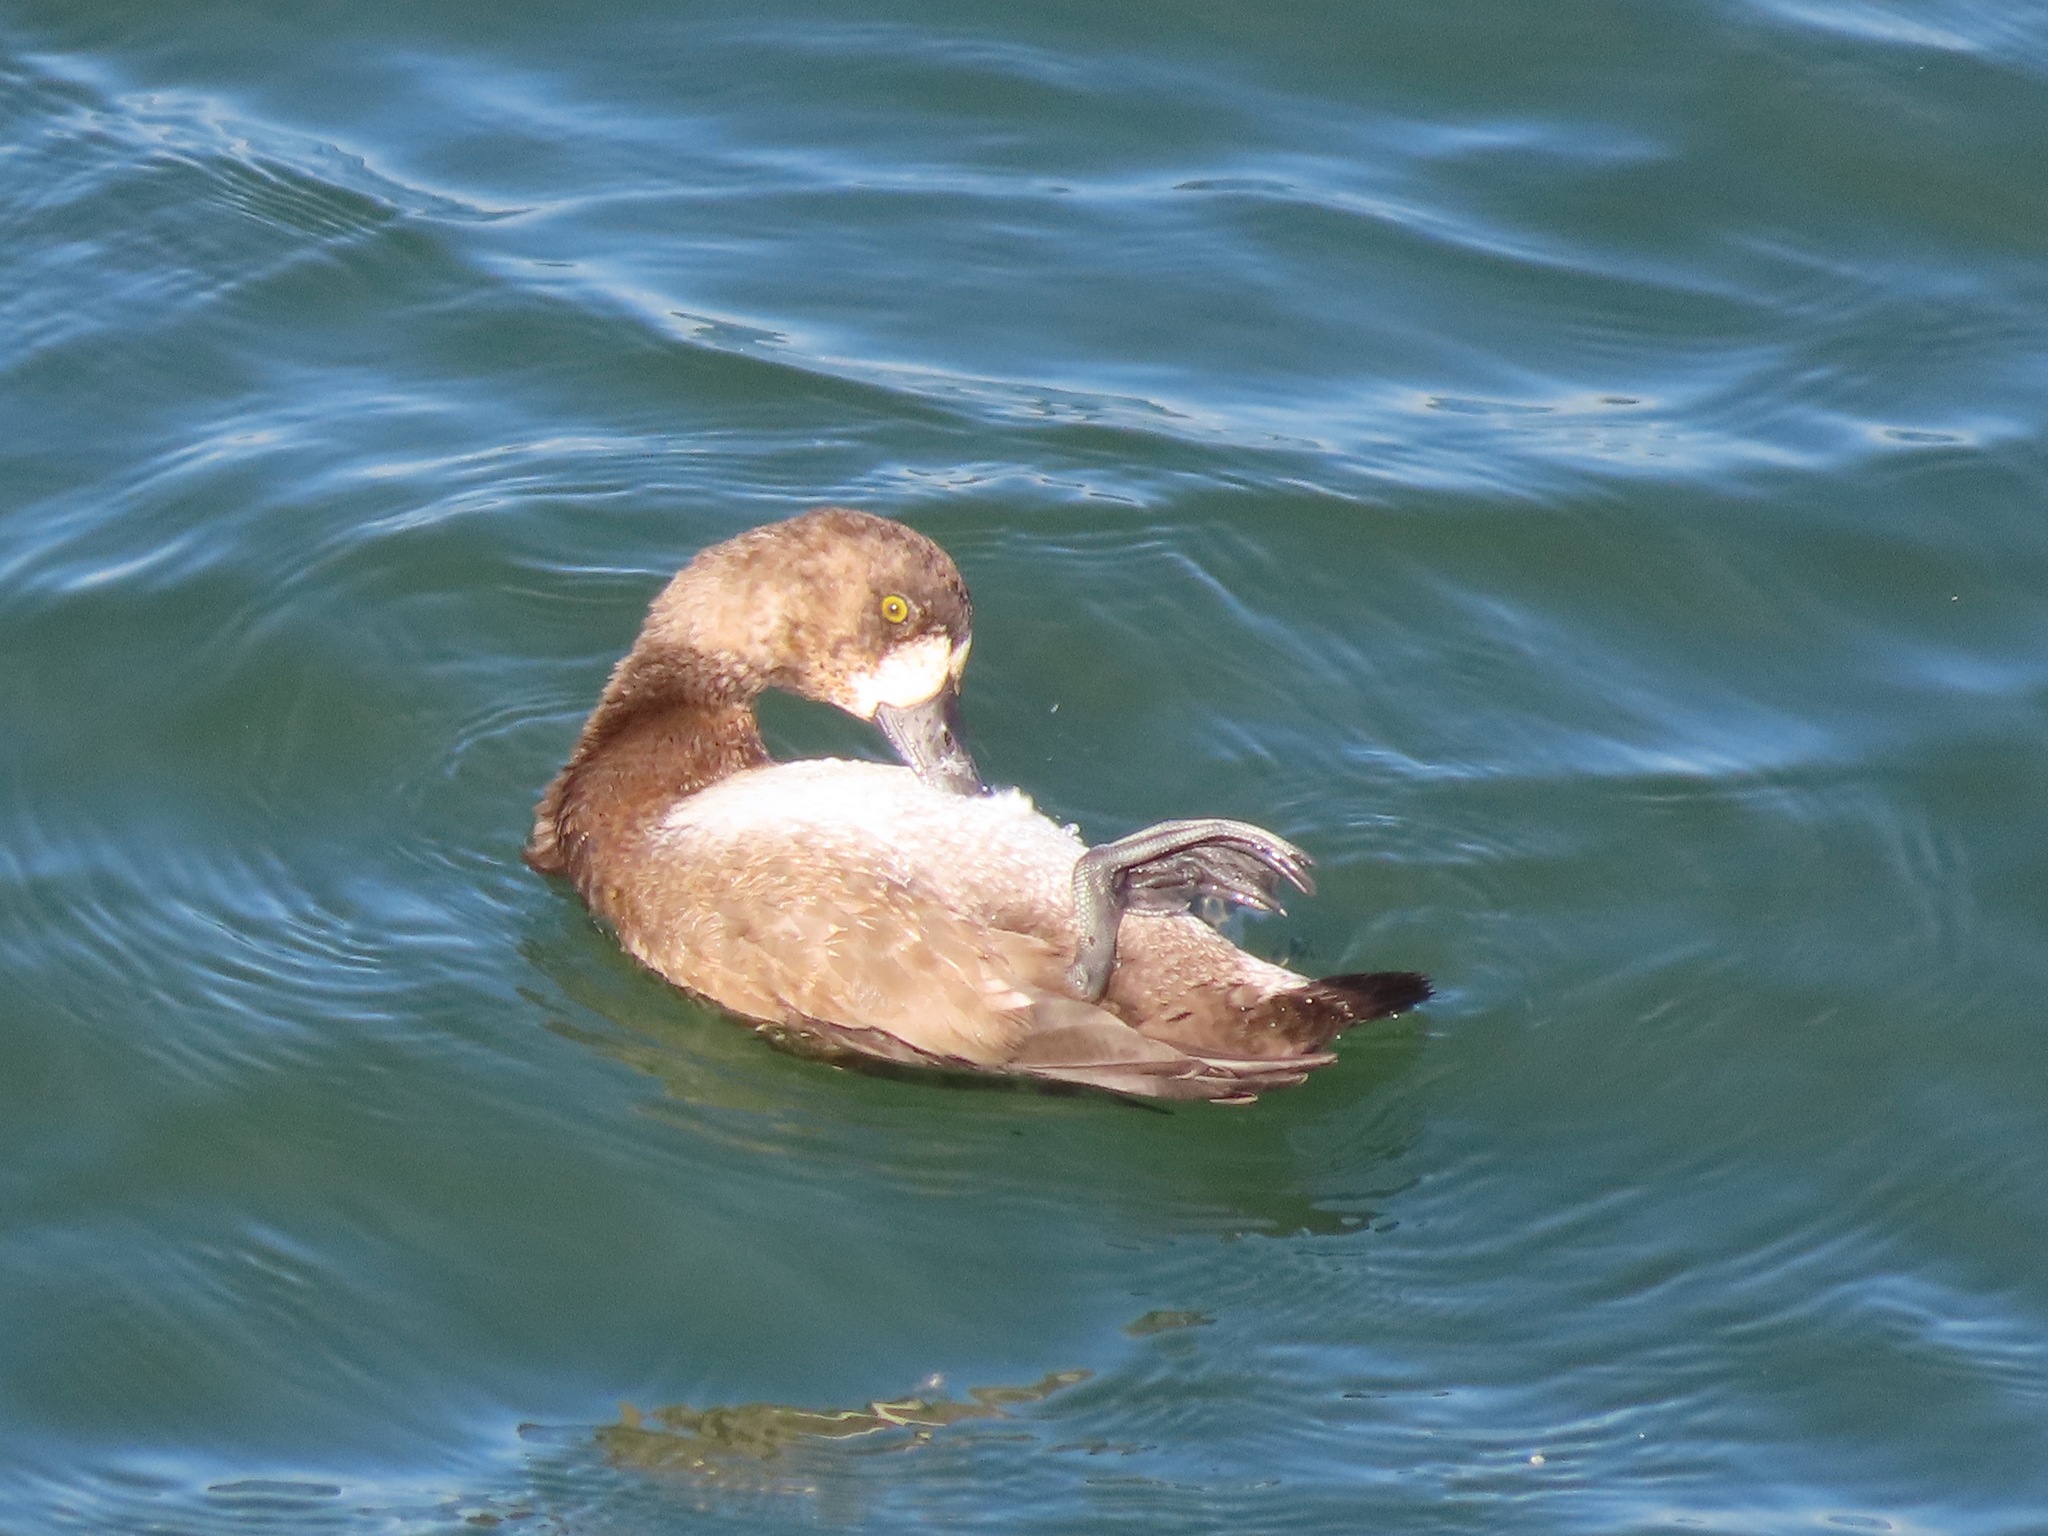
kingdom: Animalia
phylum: Chordata
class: Aves
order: Anseriformes
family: Anatidae
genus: Aythya
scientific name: Aythya marila
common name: Greater scaup
